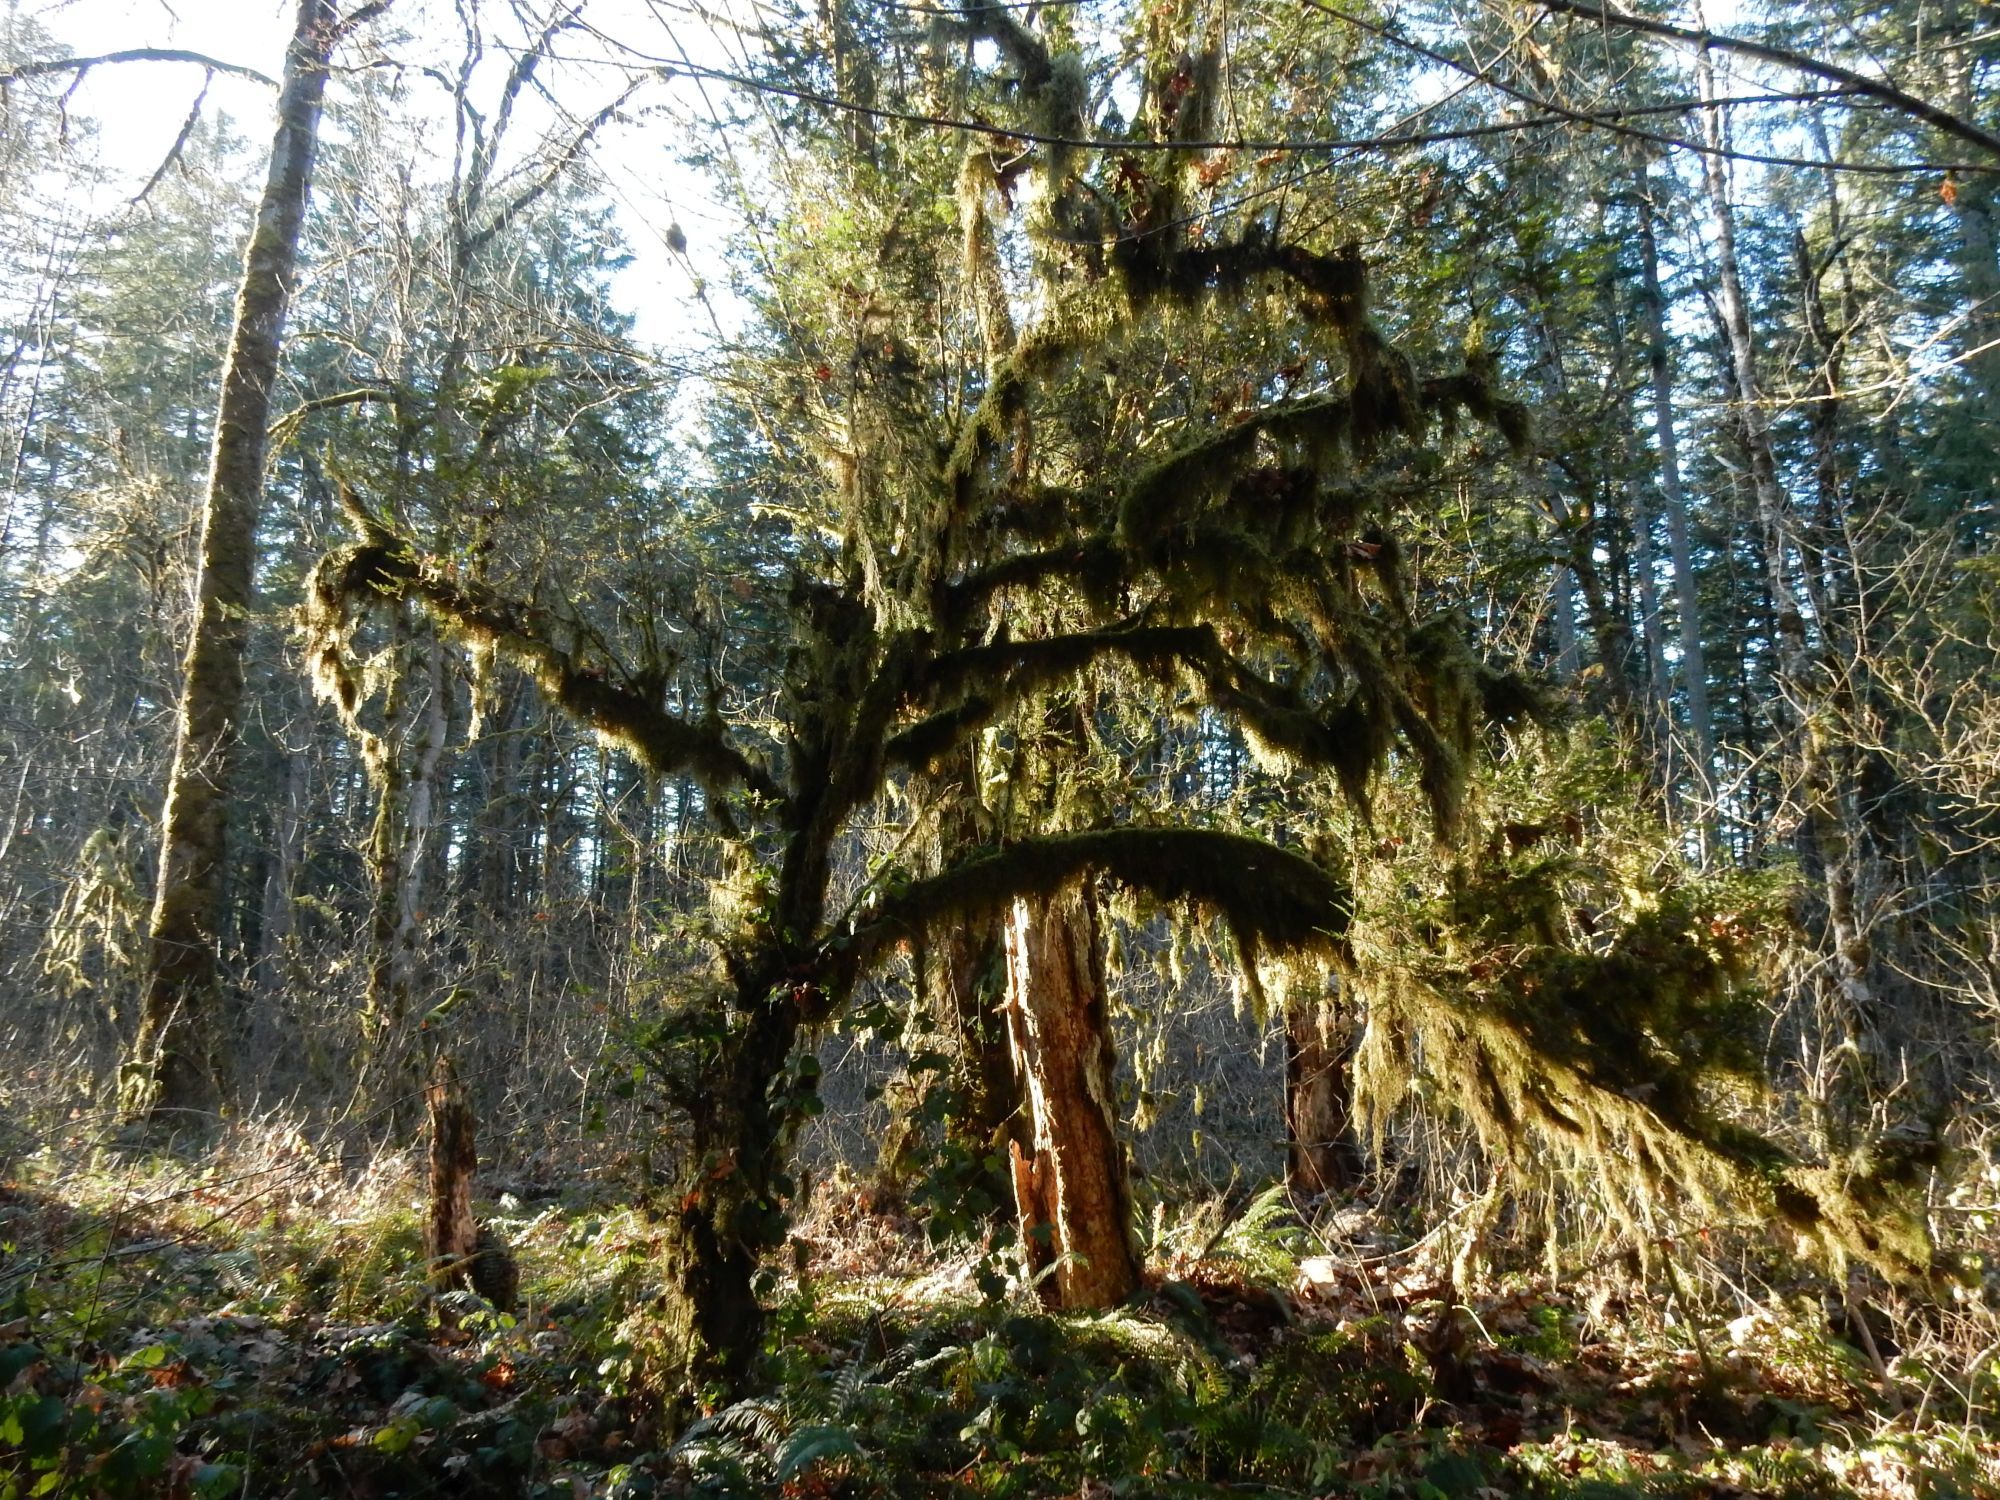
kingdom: Plantae
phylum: Tracheophyta
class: Pinopsida
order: Pinales
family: Taxaceae
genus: Taxus
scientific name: Taxus brevifolia
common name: Pacific yew
